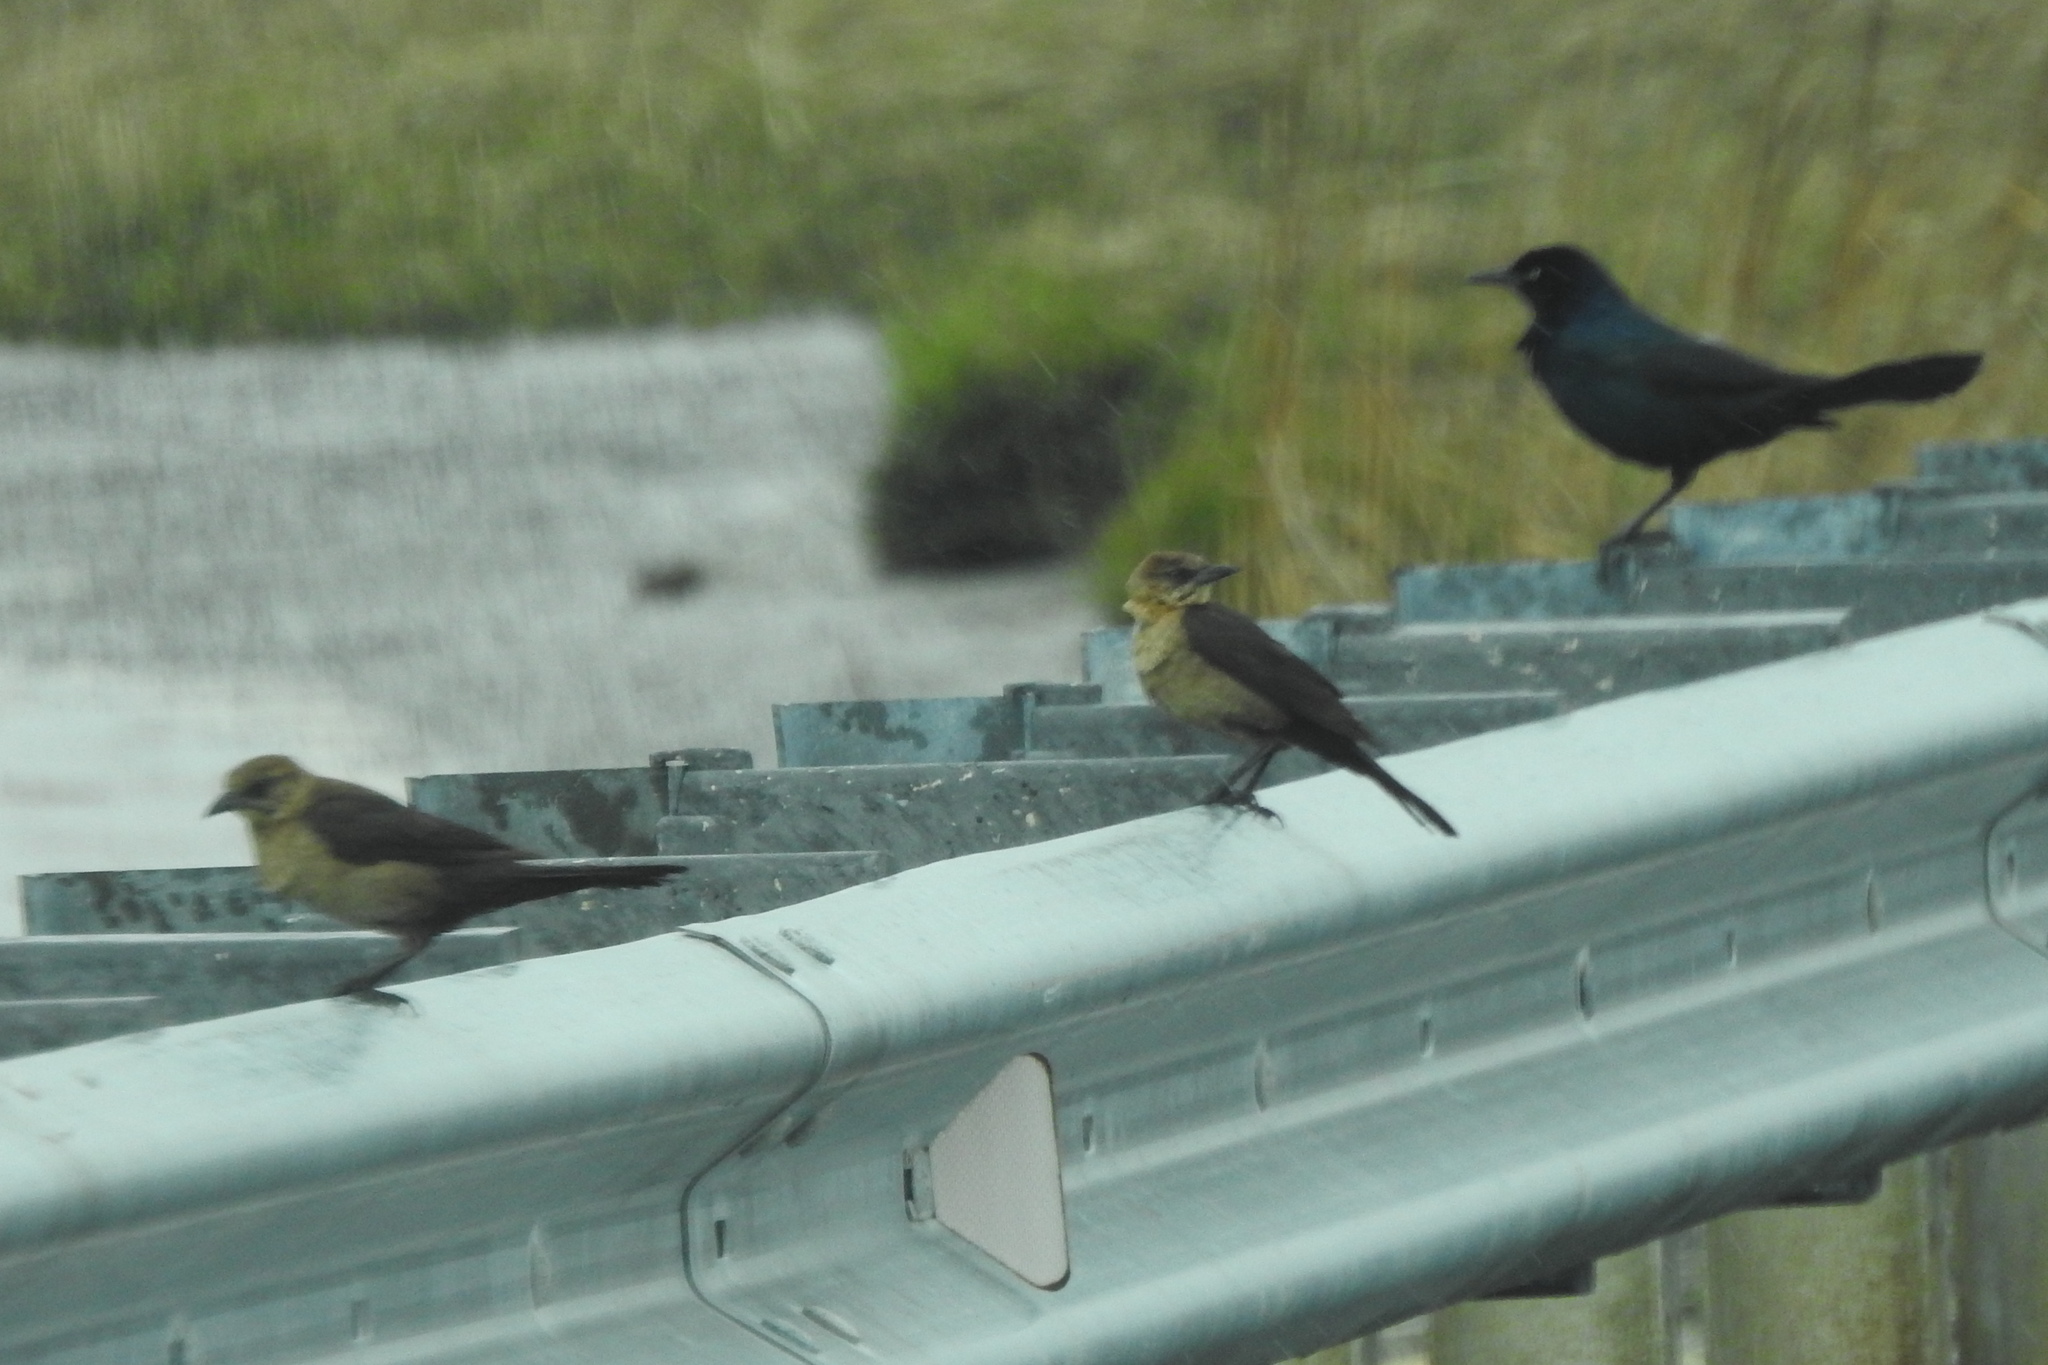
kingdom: Animalia
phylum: Chordata
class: Aves
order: Passeriformes
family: Icteridae
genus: Quiscalus
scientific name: Quiscalus major
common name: Boat-tailed grackle
